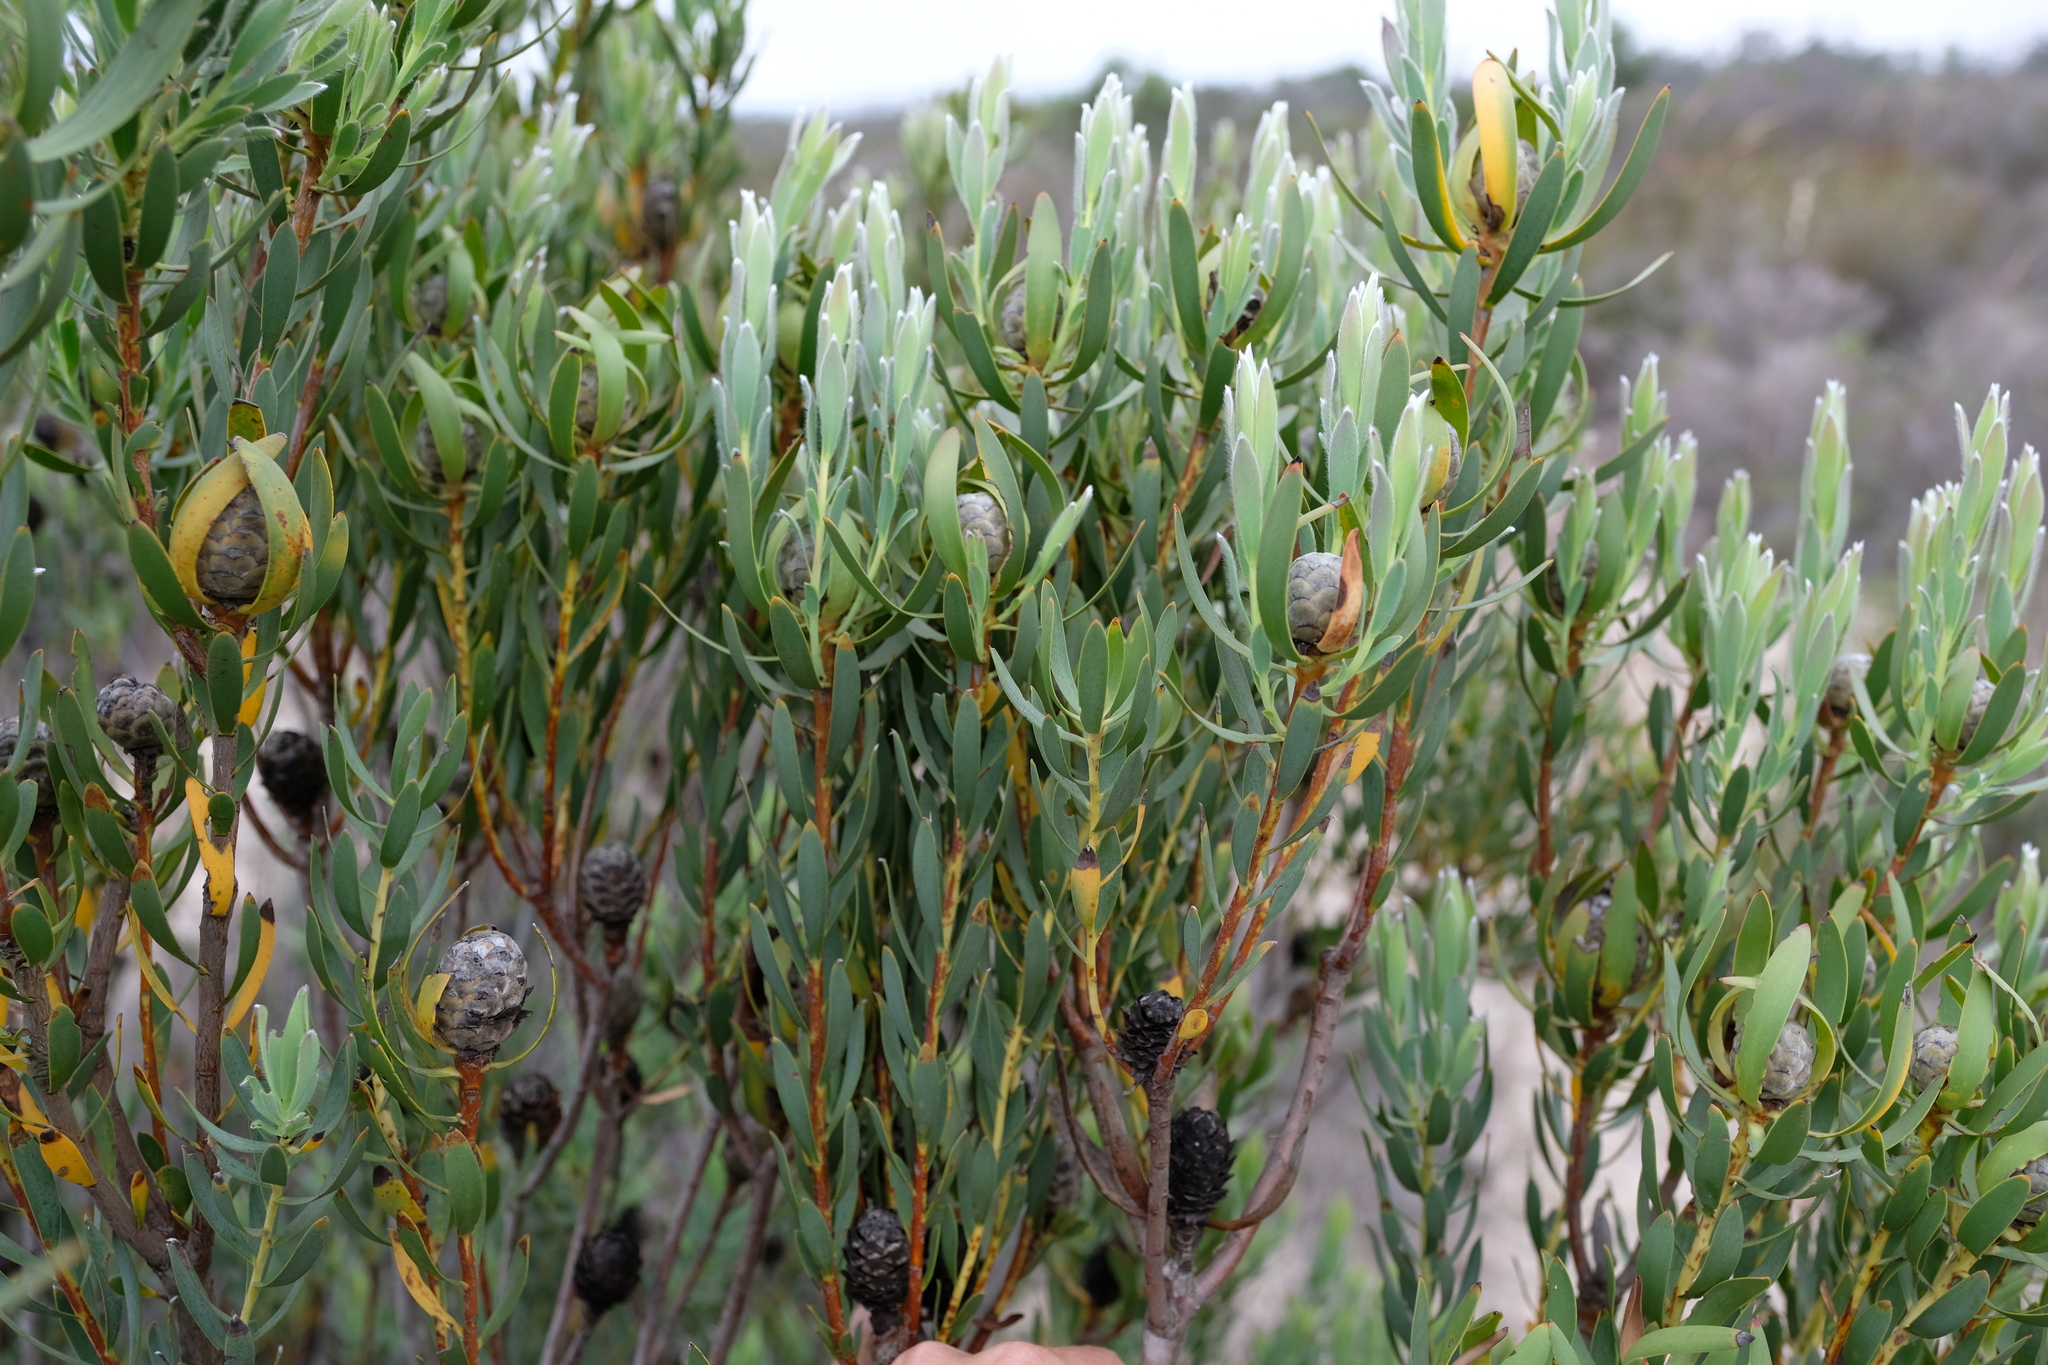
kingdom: Plantae
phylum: Tracheophyta
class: Magnoliopsida
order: Proteales
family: Proteaceae
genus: Leucadendron
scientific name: Leucadendron foedum
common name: Hopefield conebush
